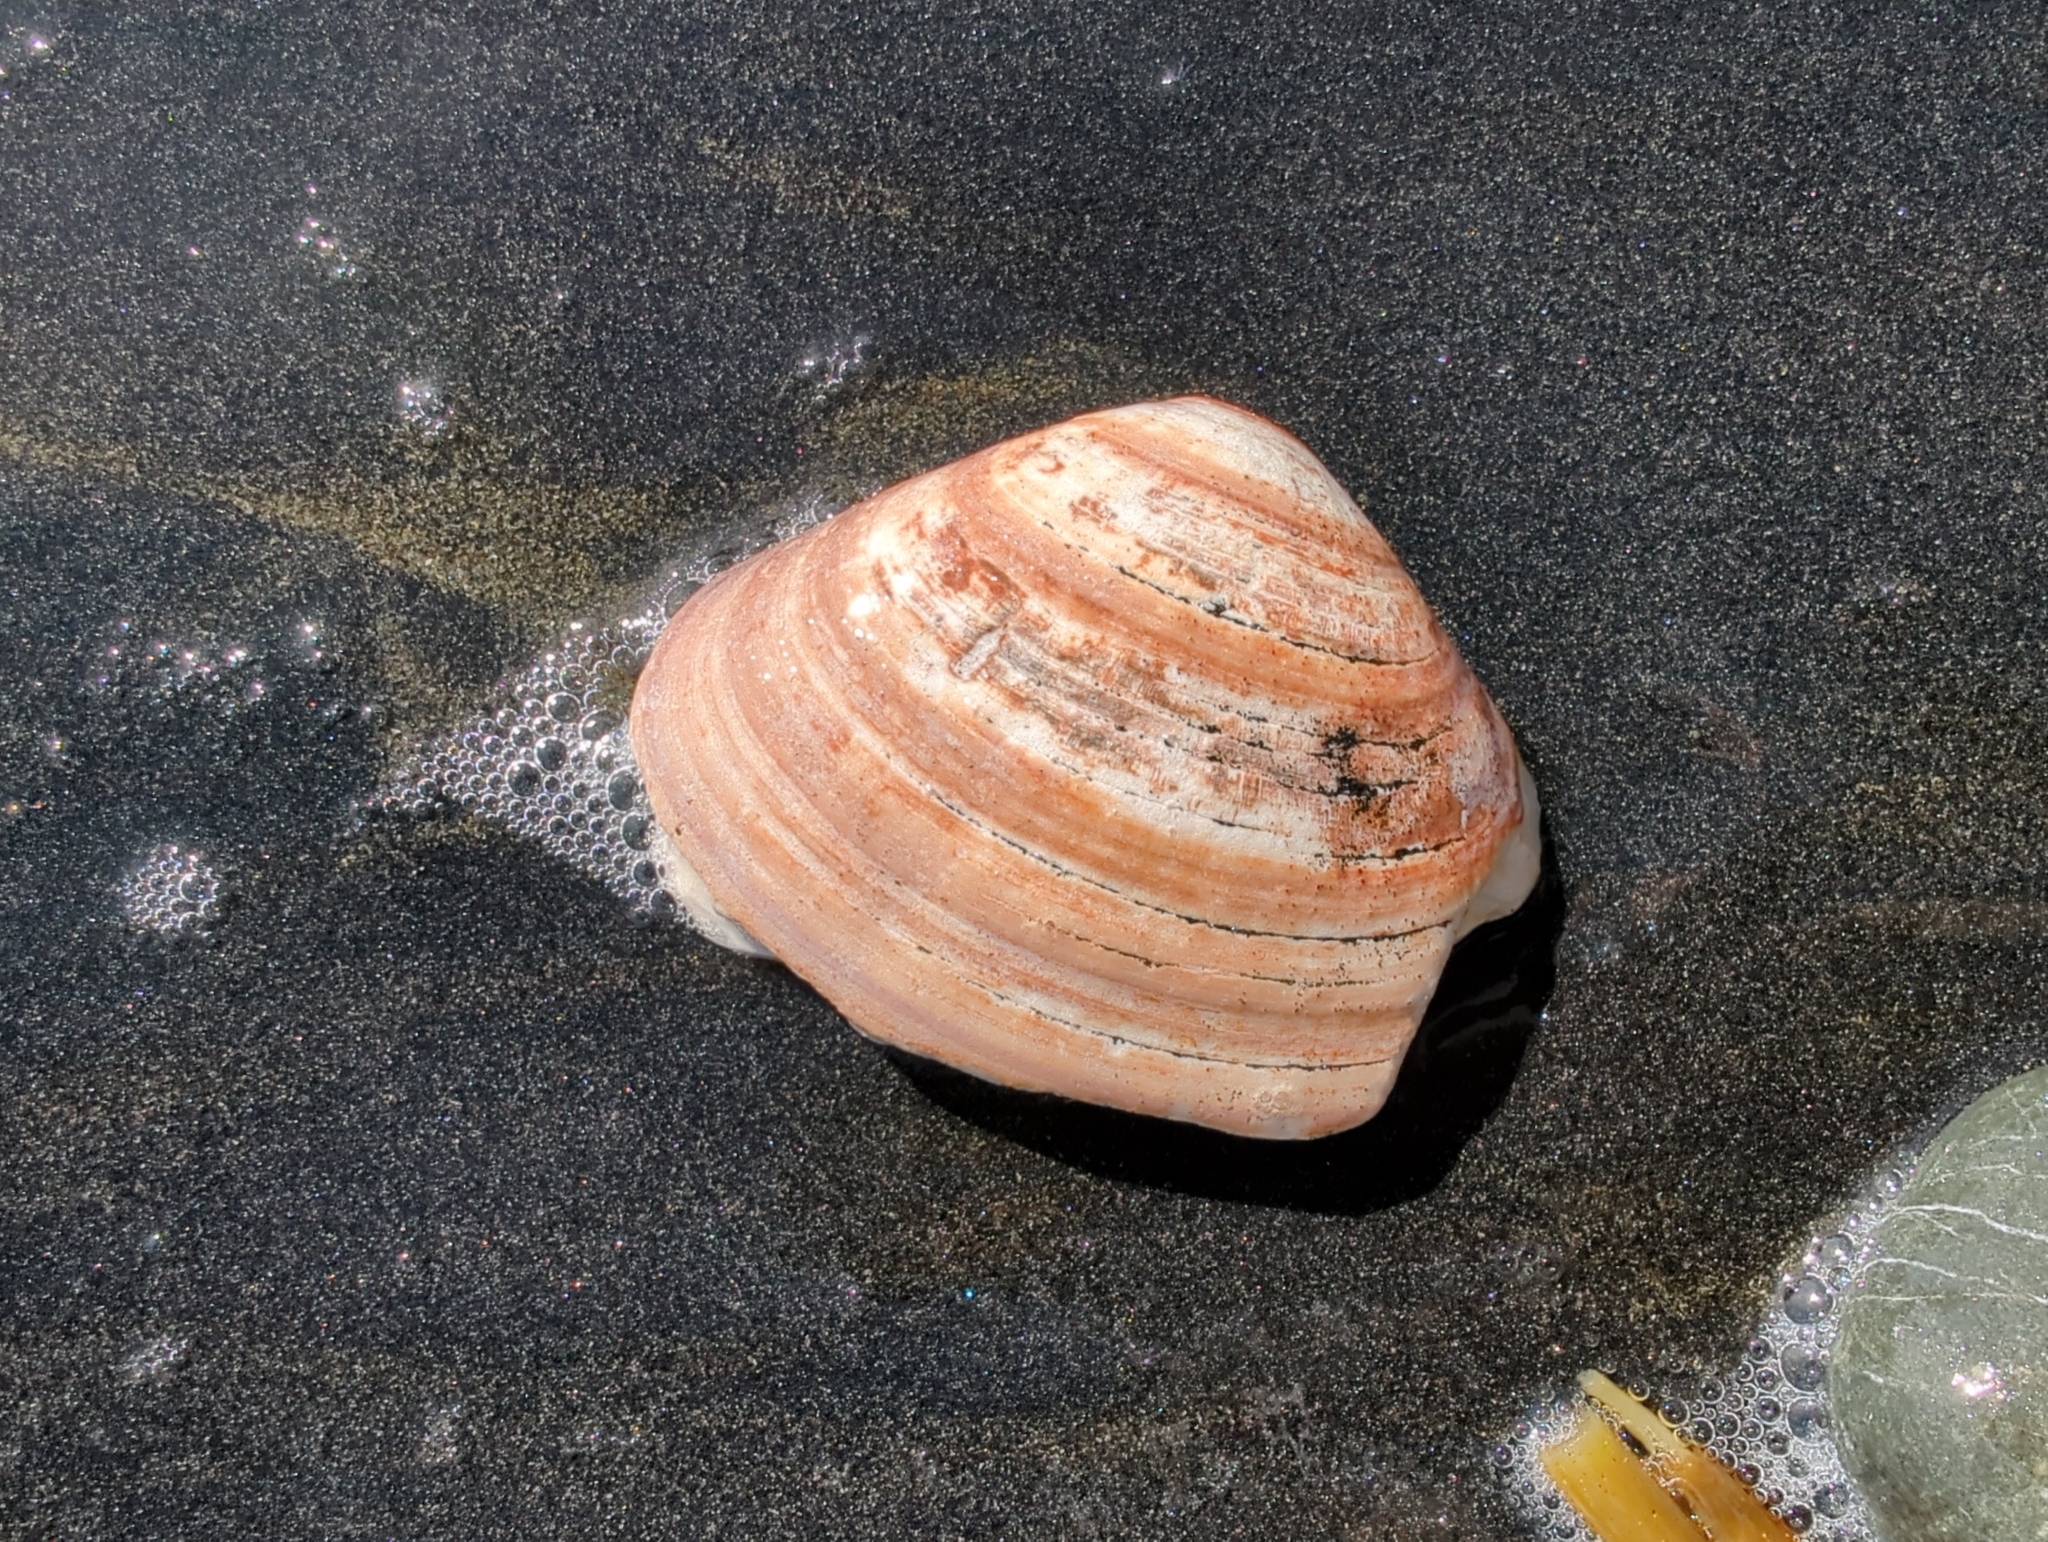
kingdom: Animalia
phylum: Mollusca
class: Bivalvia
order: Venerida
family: Veneridae
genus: Tivela
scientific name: Tivela stultorum
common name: Pismo clam
